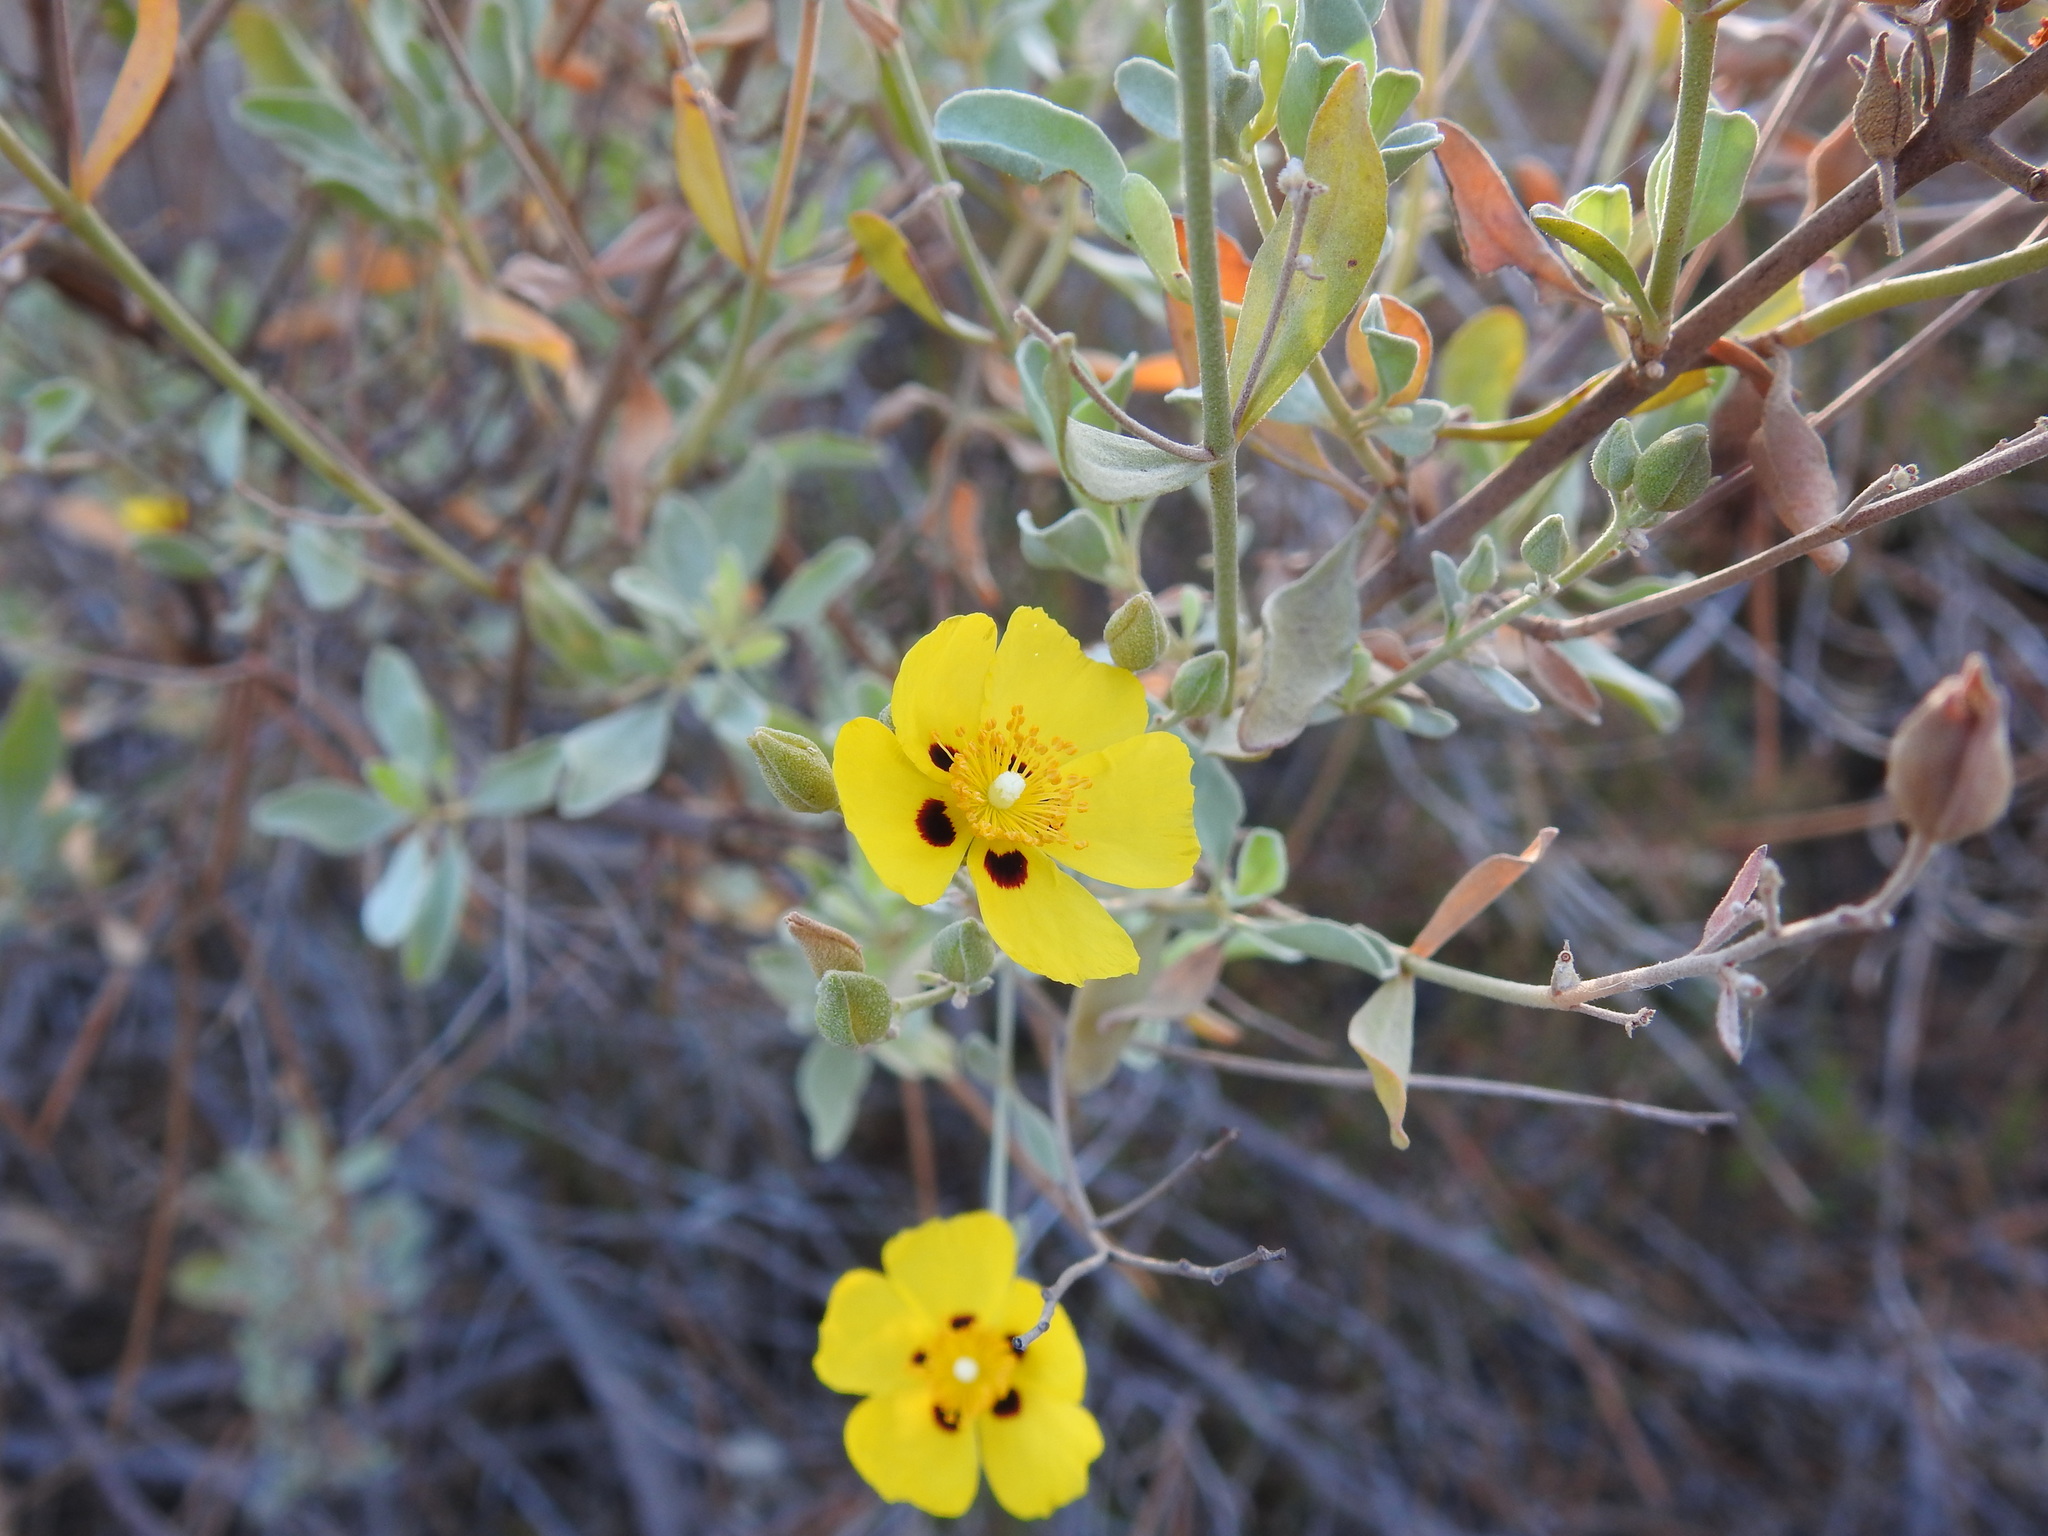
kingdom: Plantae
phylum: Tracheophyta
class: Magnoliopsida
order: Malvales
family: Cistaceae
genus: Halimium
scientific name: Halimium halimifolium
